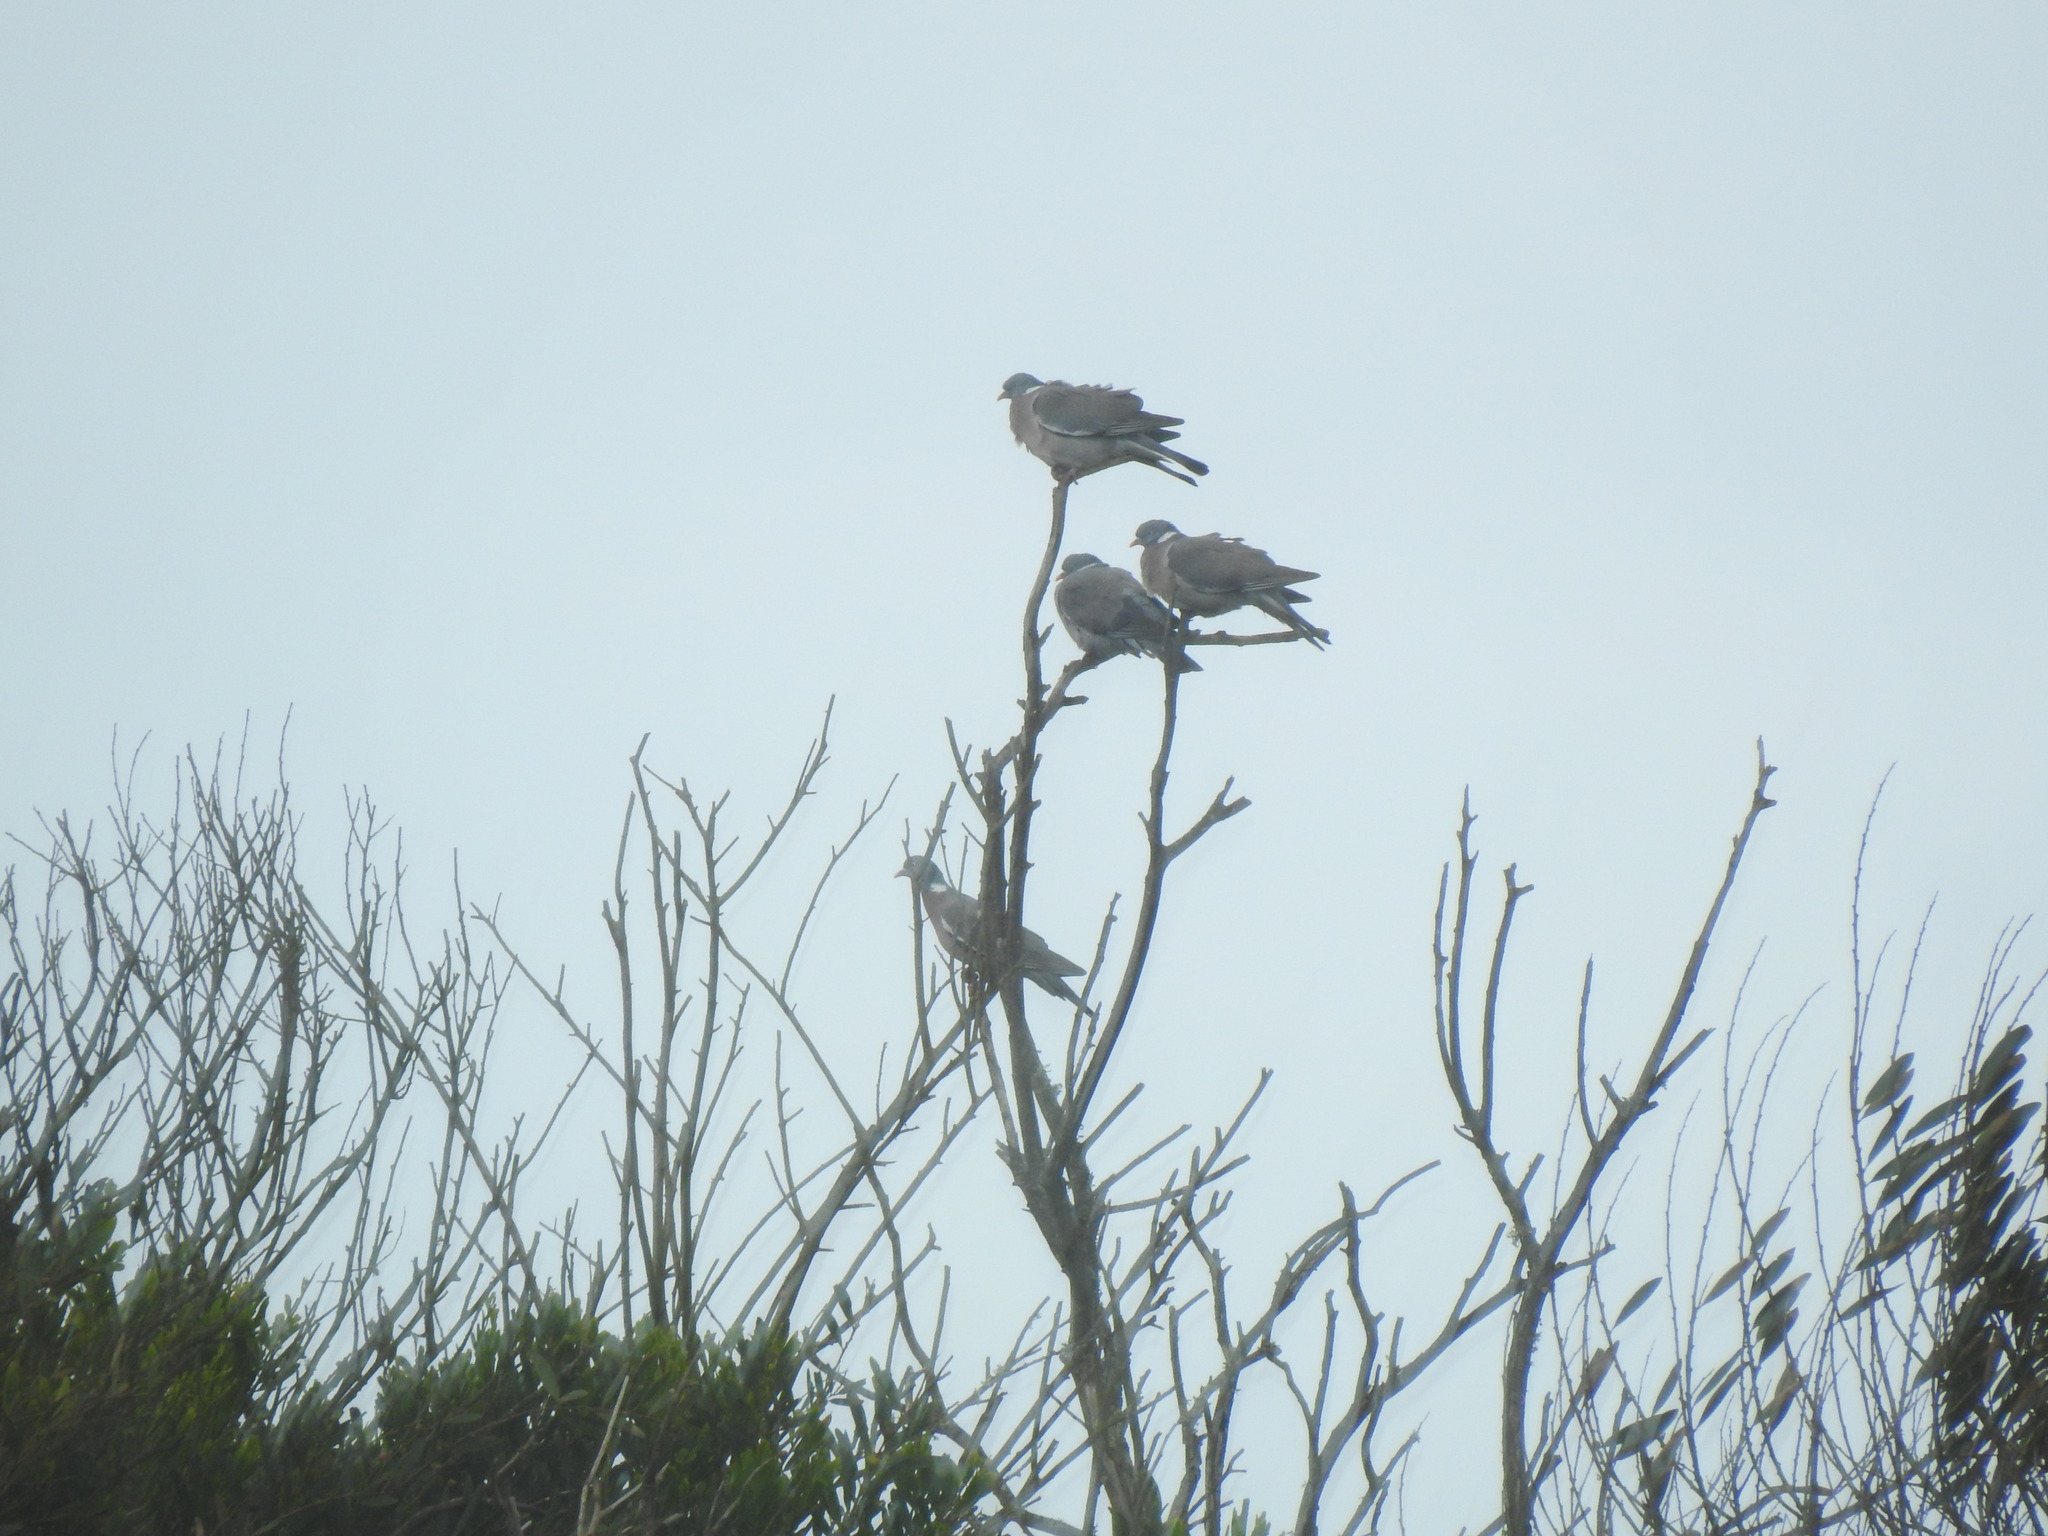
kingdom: Animalia
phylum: Chordata
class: Aves
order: Columbiformes
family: Columbidae
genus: Columba
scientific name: Columba palumbus
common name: Common wood pigeon
